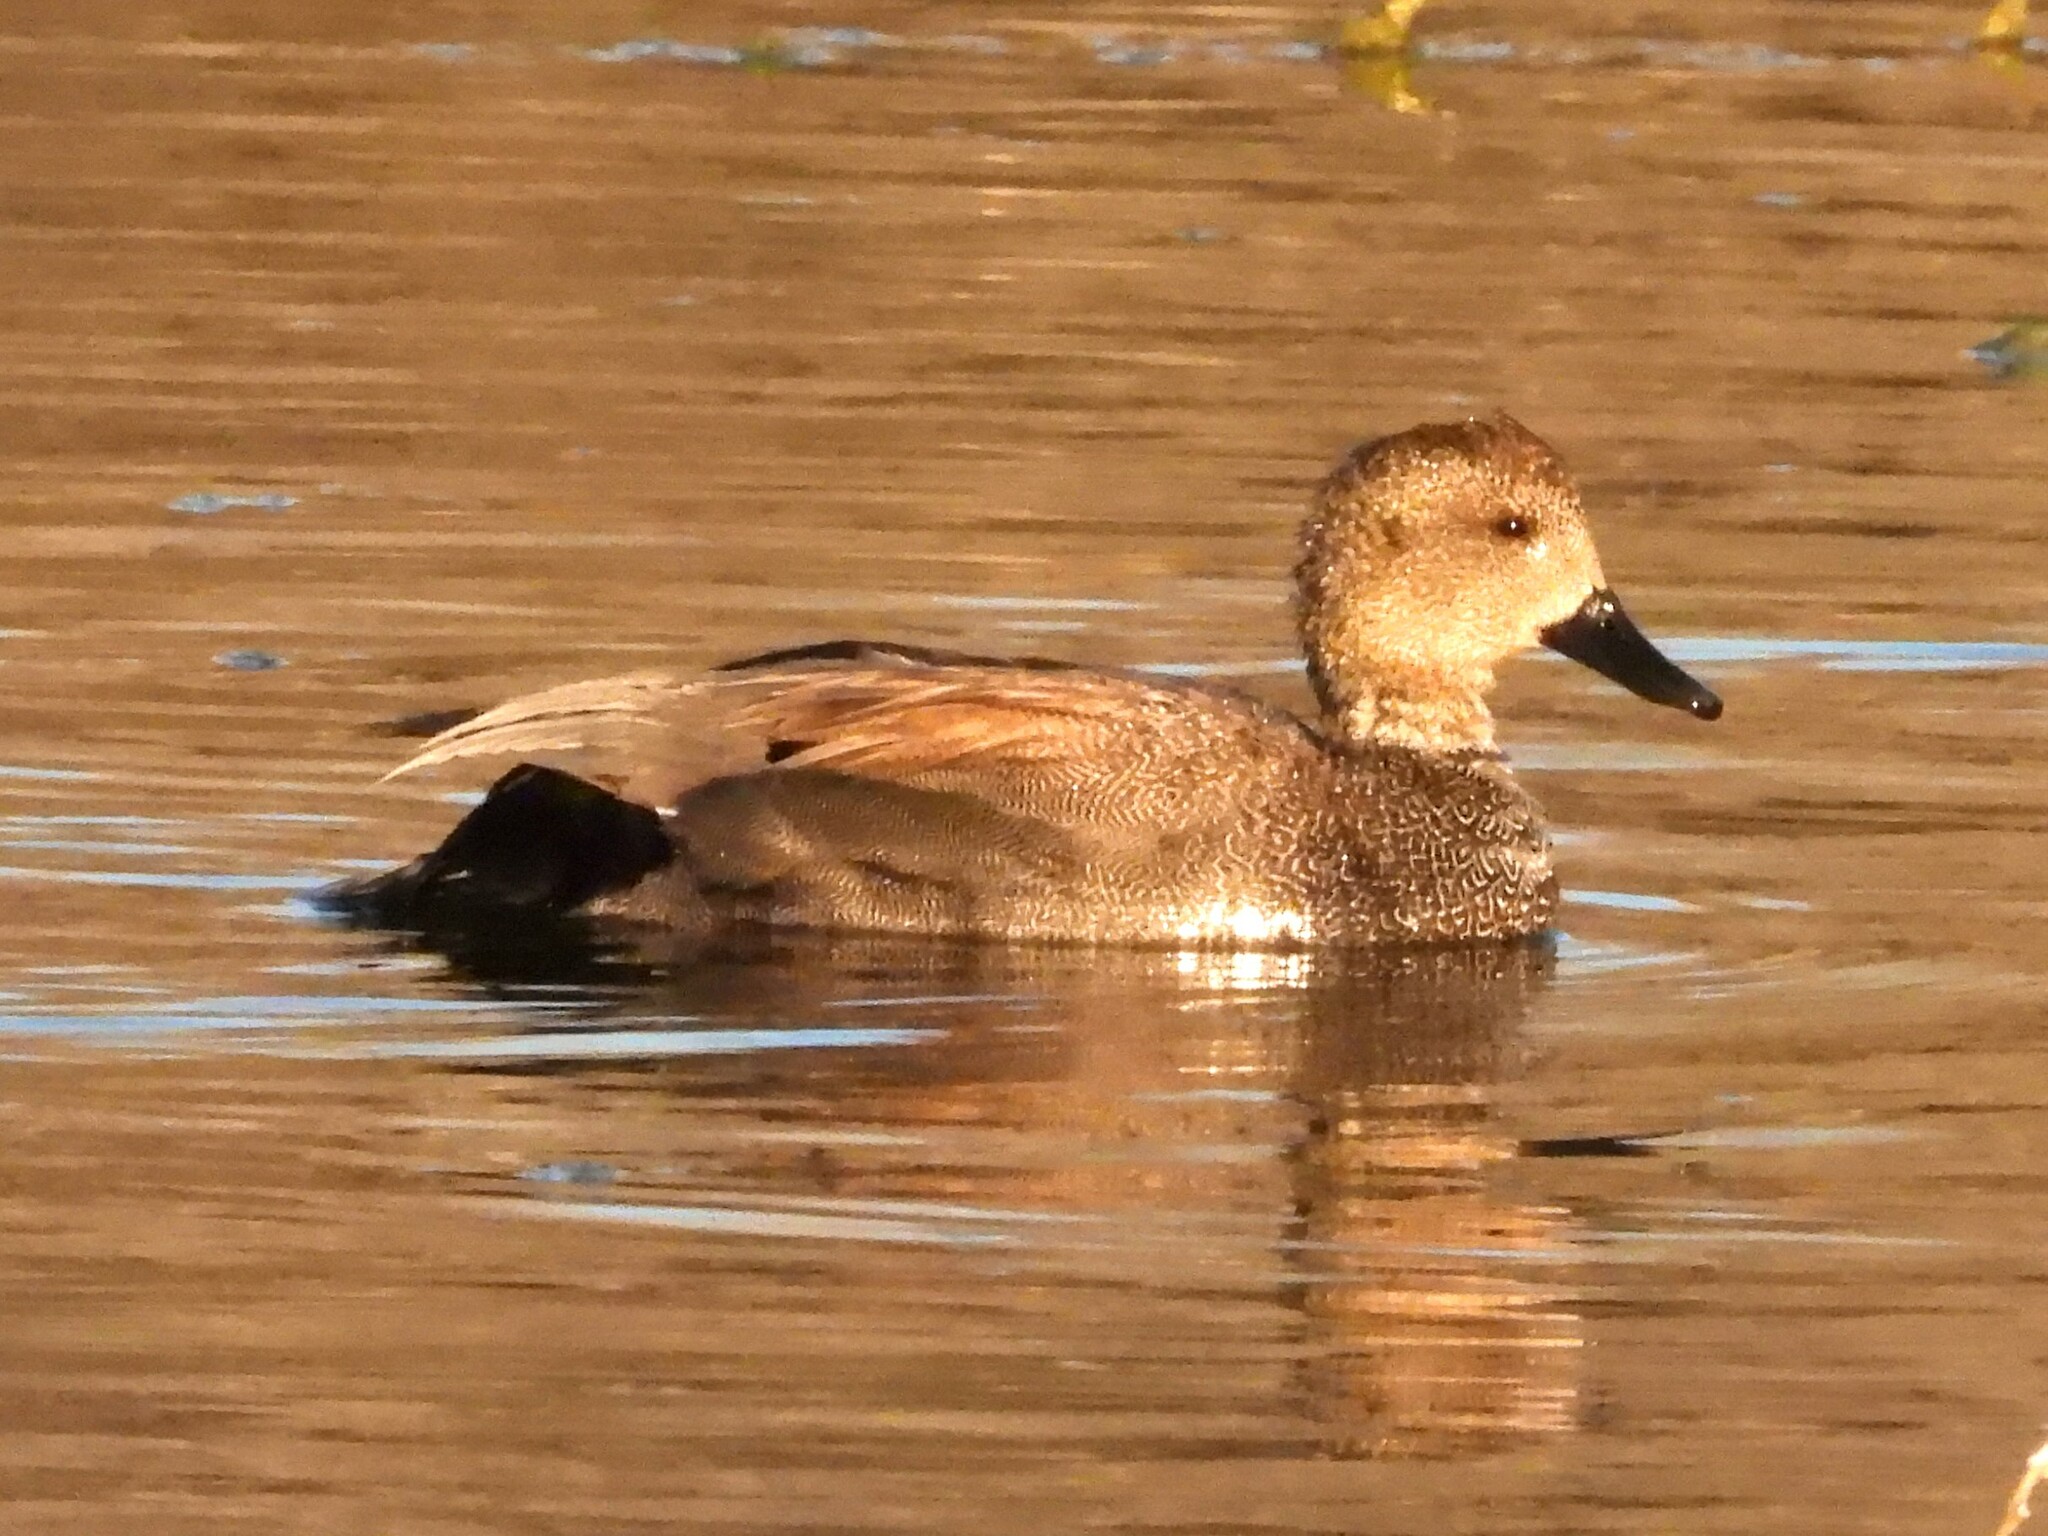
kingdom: Animalia
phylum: Chordata
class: Aves
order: Anseriformes
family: Anatidae
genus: Mareca
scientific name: Mareca strepera
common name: Gadwall
